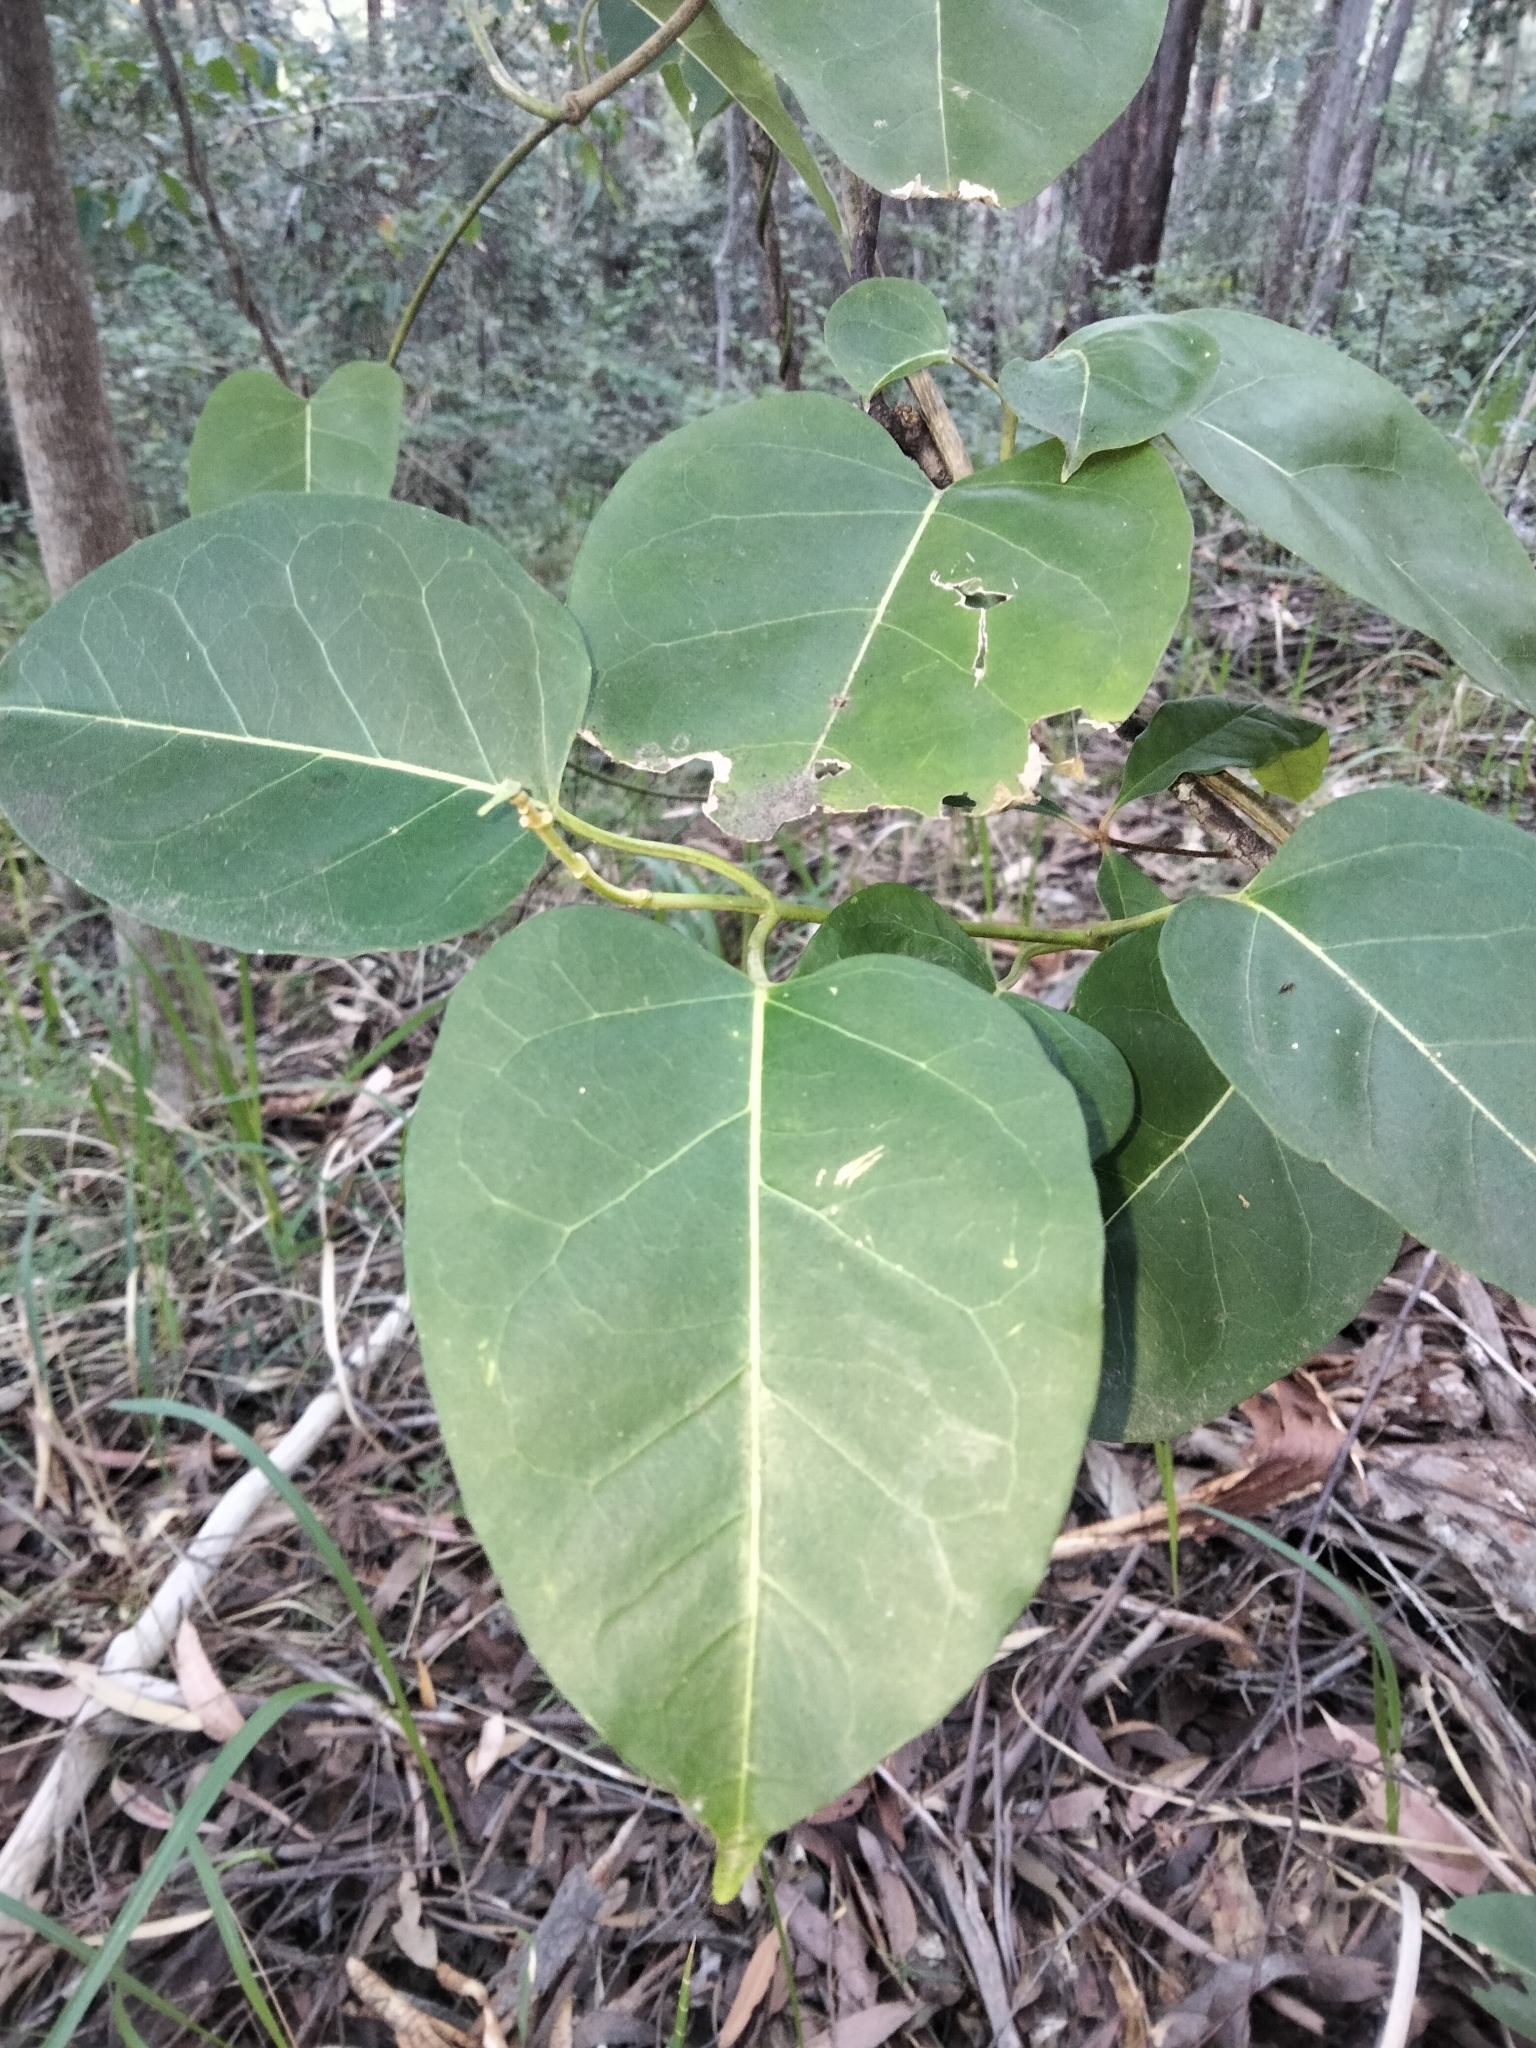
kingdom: Plantae
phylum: Tracheophyta
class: Magnoliopsida
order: Gentianales
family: Apocynaceae
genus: Leichhardtia
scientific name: Leichhardtia rostrata
